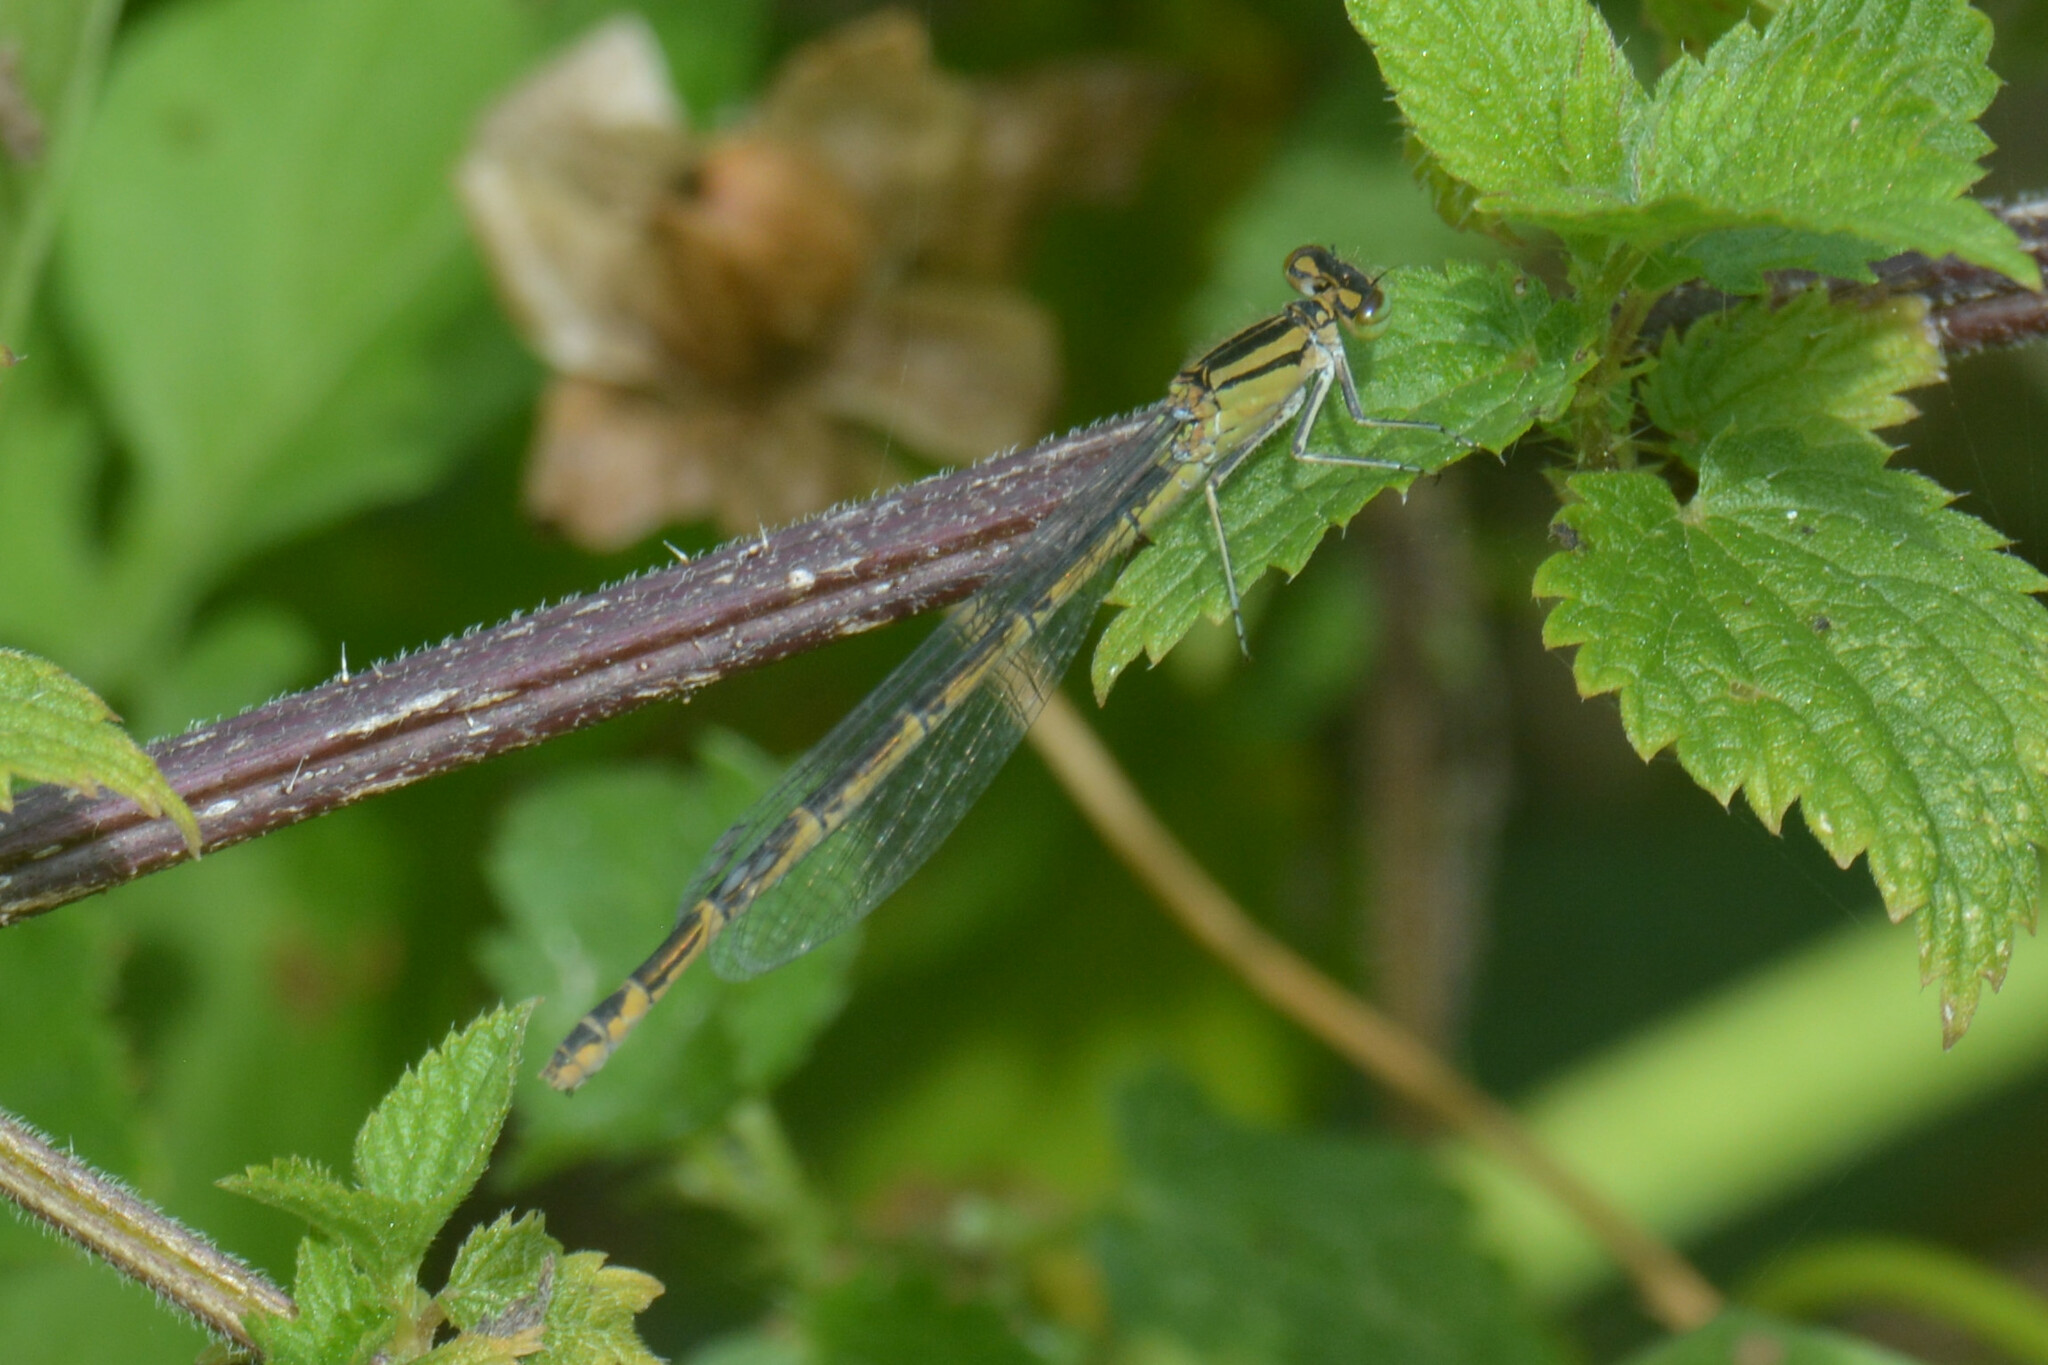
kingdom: Animalia
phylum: Arthropoda
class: Insecta
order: Odonata
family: Coenagrionidae
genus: Enallagma
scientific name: Enallagma cyathigerum
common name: Common blue damselfly
